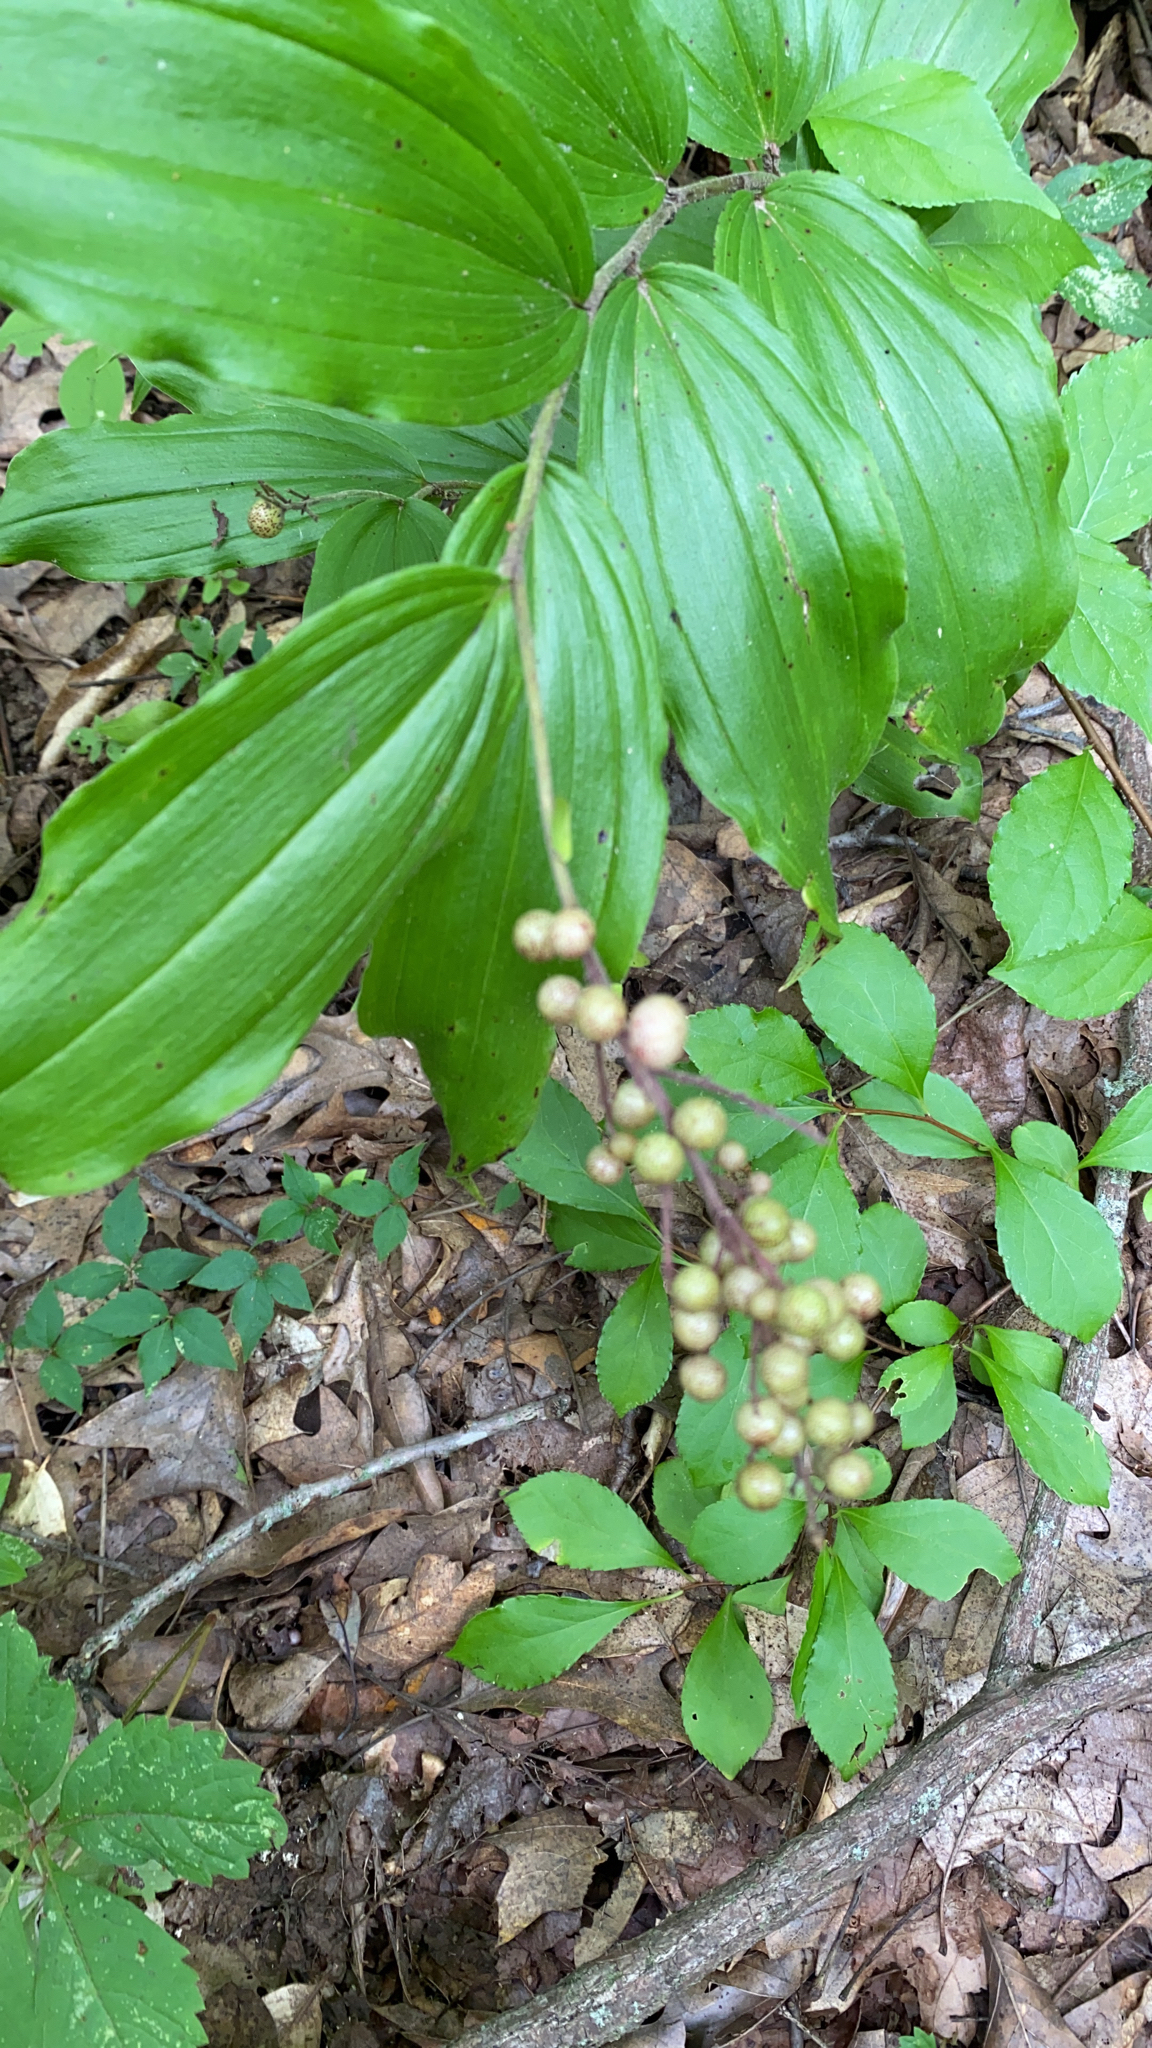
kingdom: Plantae
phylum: Tracheophyta
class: Liliopsida
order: Asparagales
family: Asparagaceae
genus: Maianthemum
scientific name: Maianthemum racemosum
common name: False spikenard
